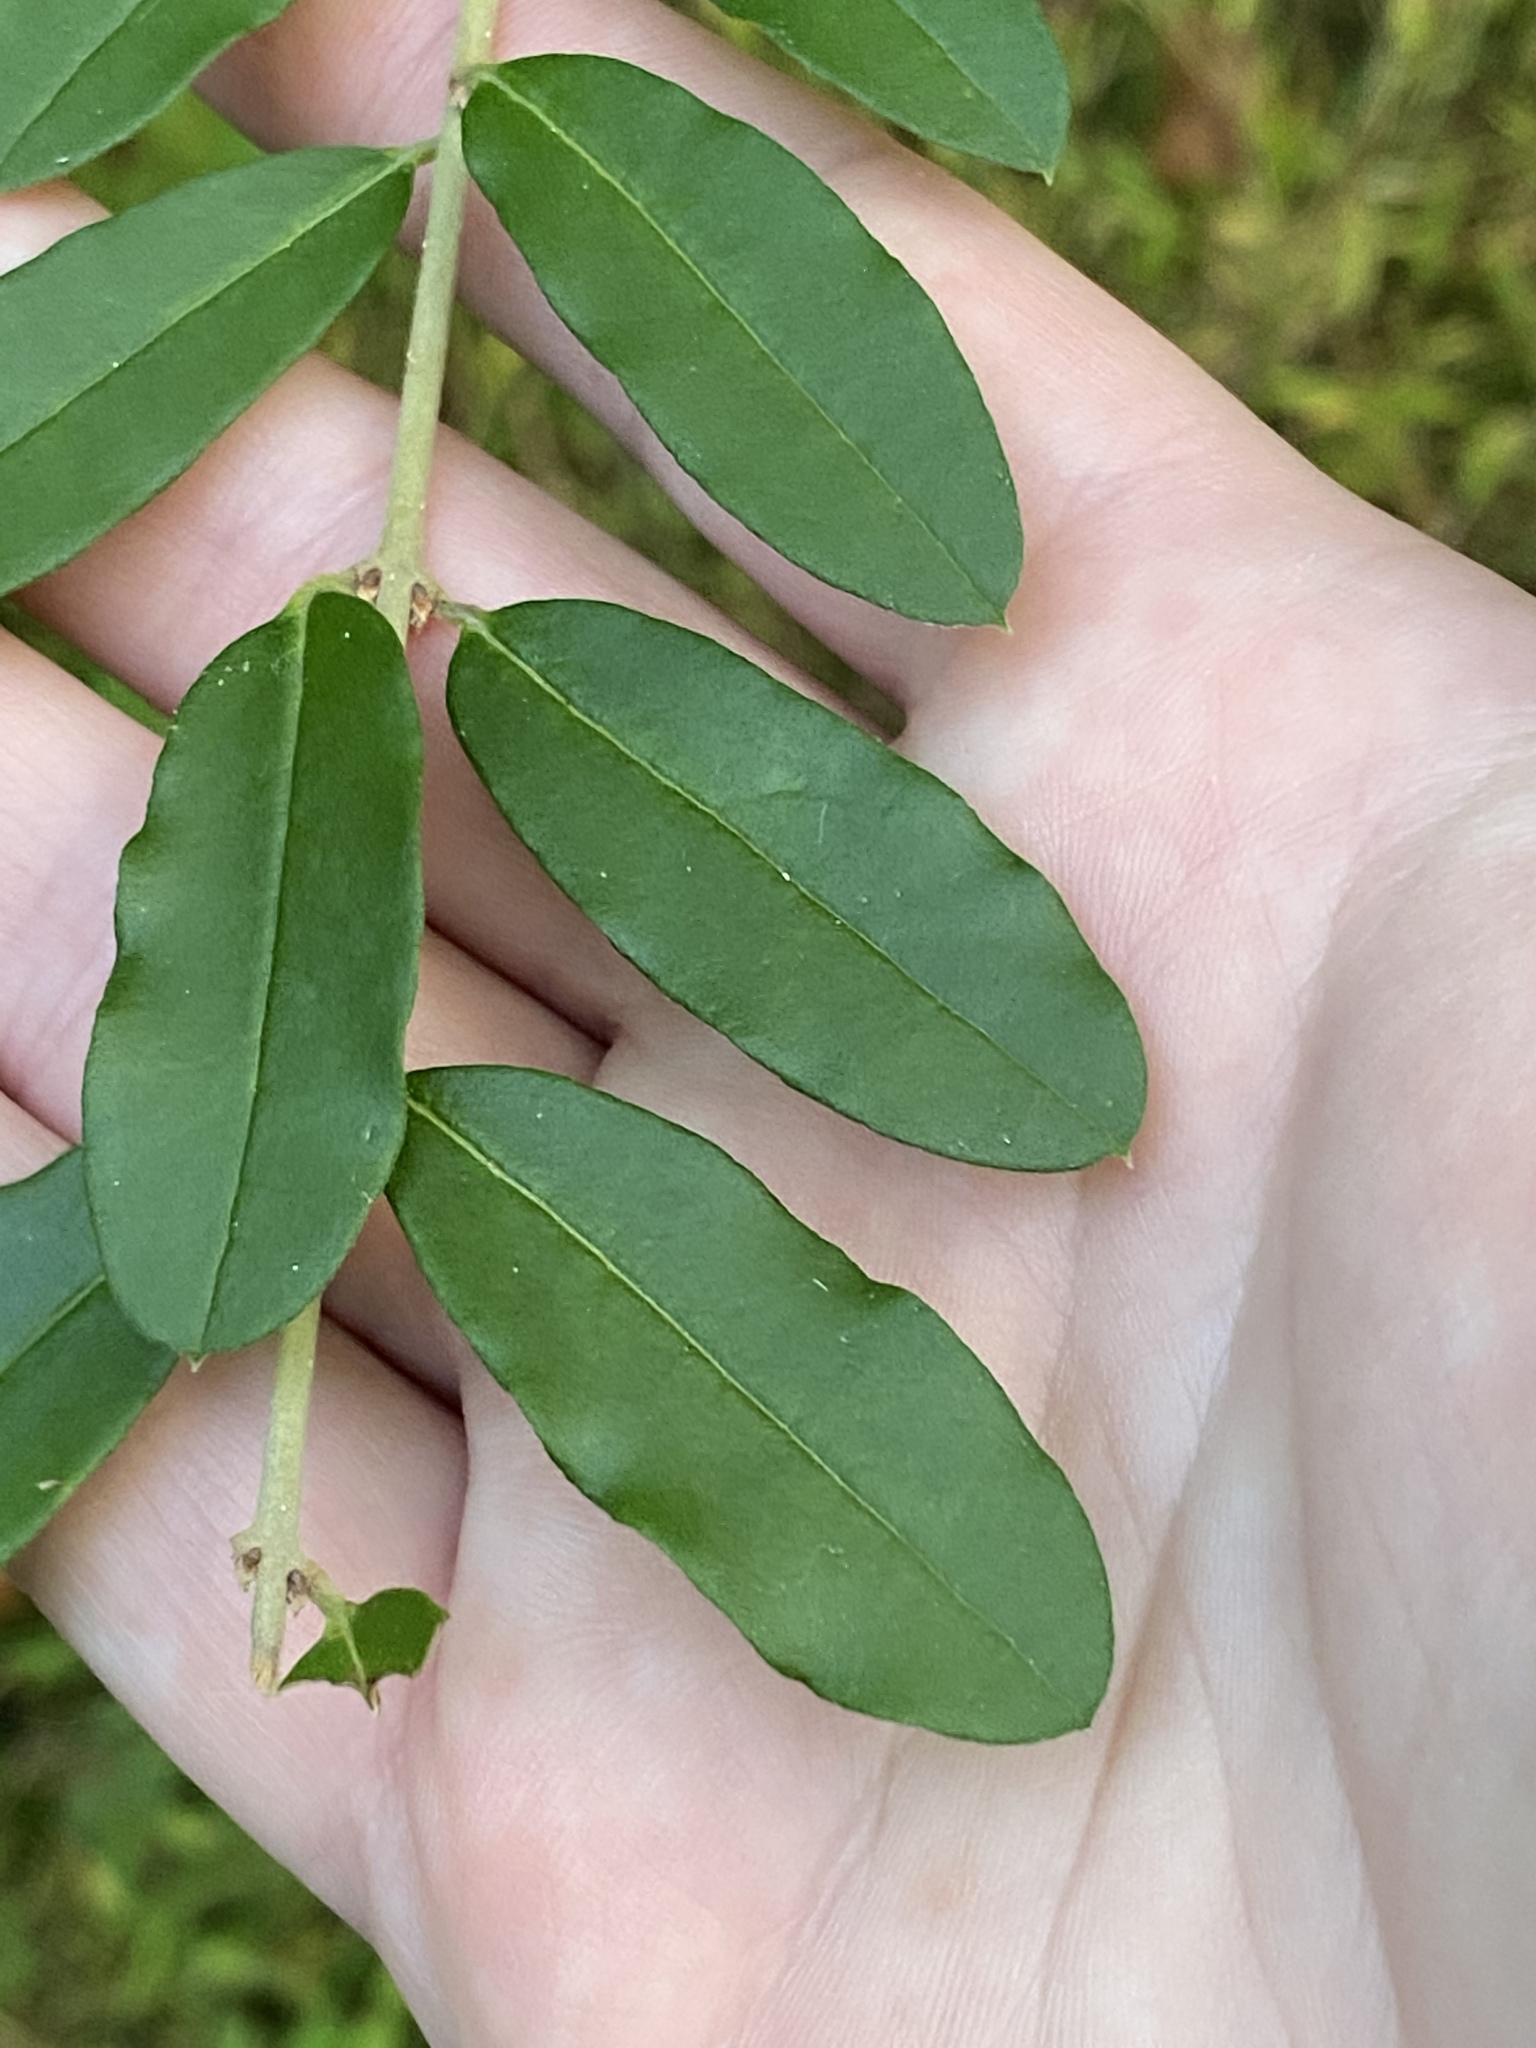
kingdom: Plantae
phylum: Tracheophyta
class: Magnoliopsida
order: Lamiales
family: Oleaceae
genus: Ligustrum
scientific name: Ligustrum obtusifolium
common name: Border privet
